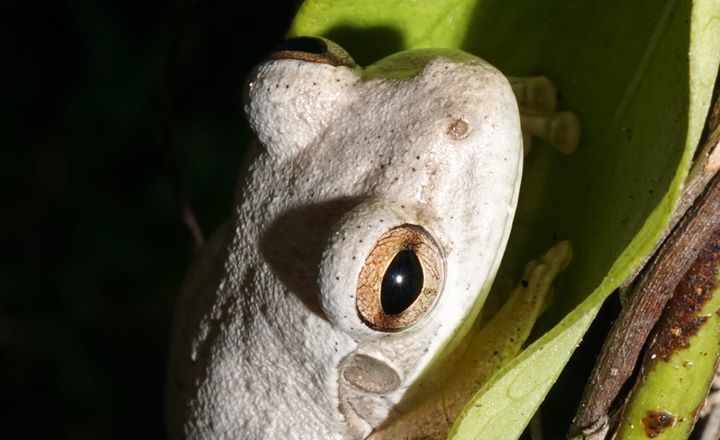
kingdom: Animalia
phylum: Chordata
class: Amphibia
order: Anura
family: Hylidae
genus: Osteopilus
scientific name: Osteopilus septentrionalis
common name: Cuban treefrog
